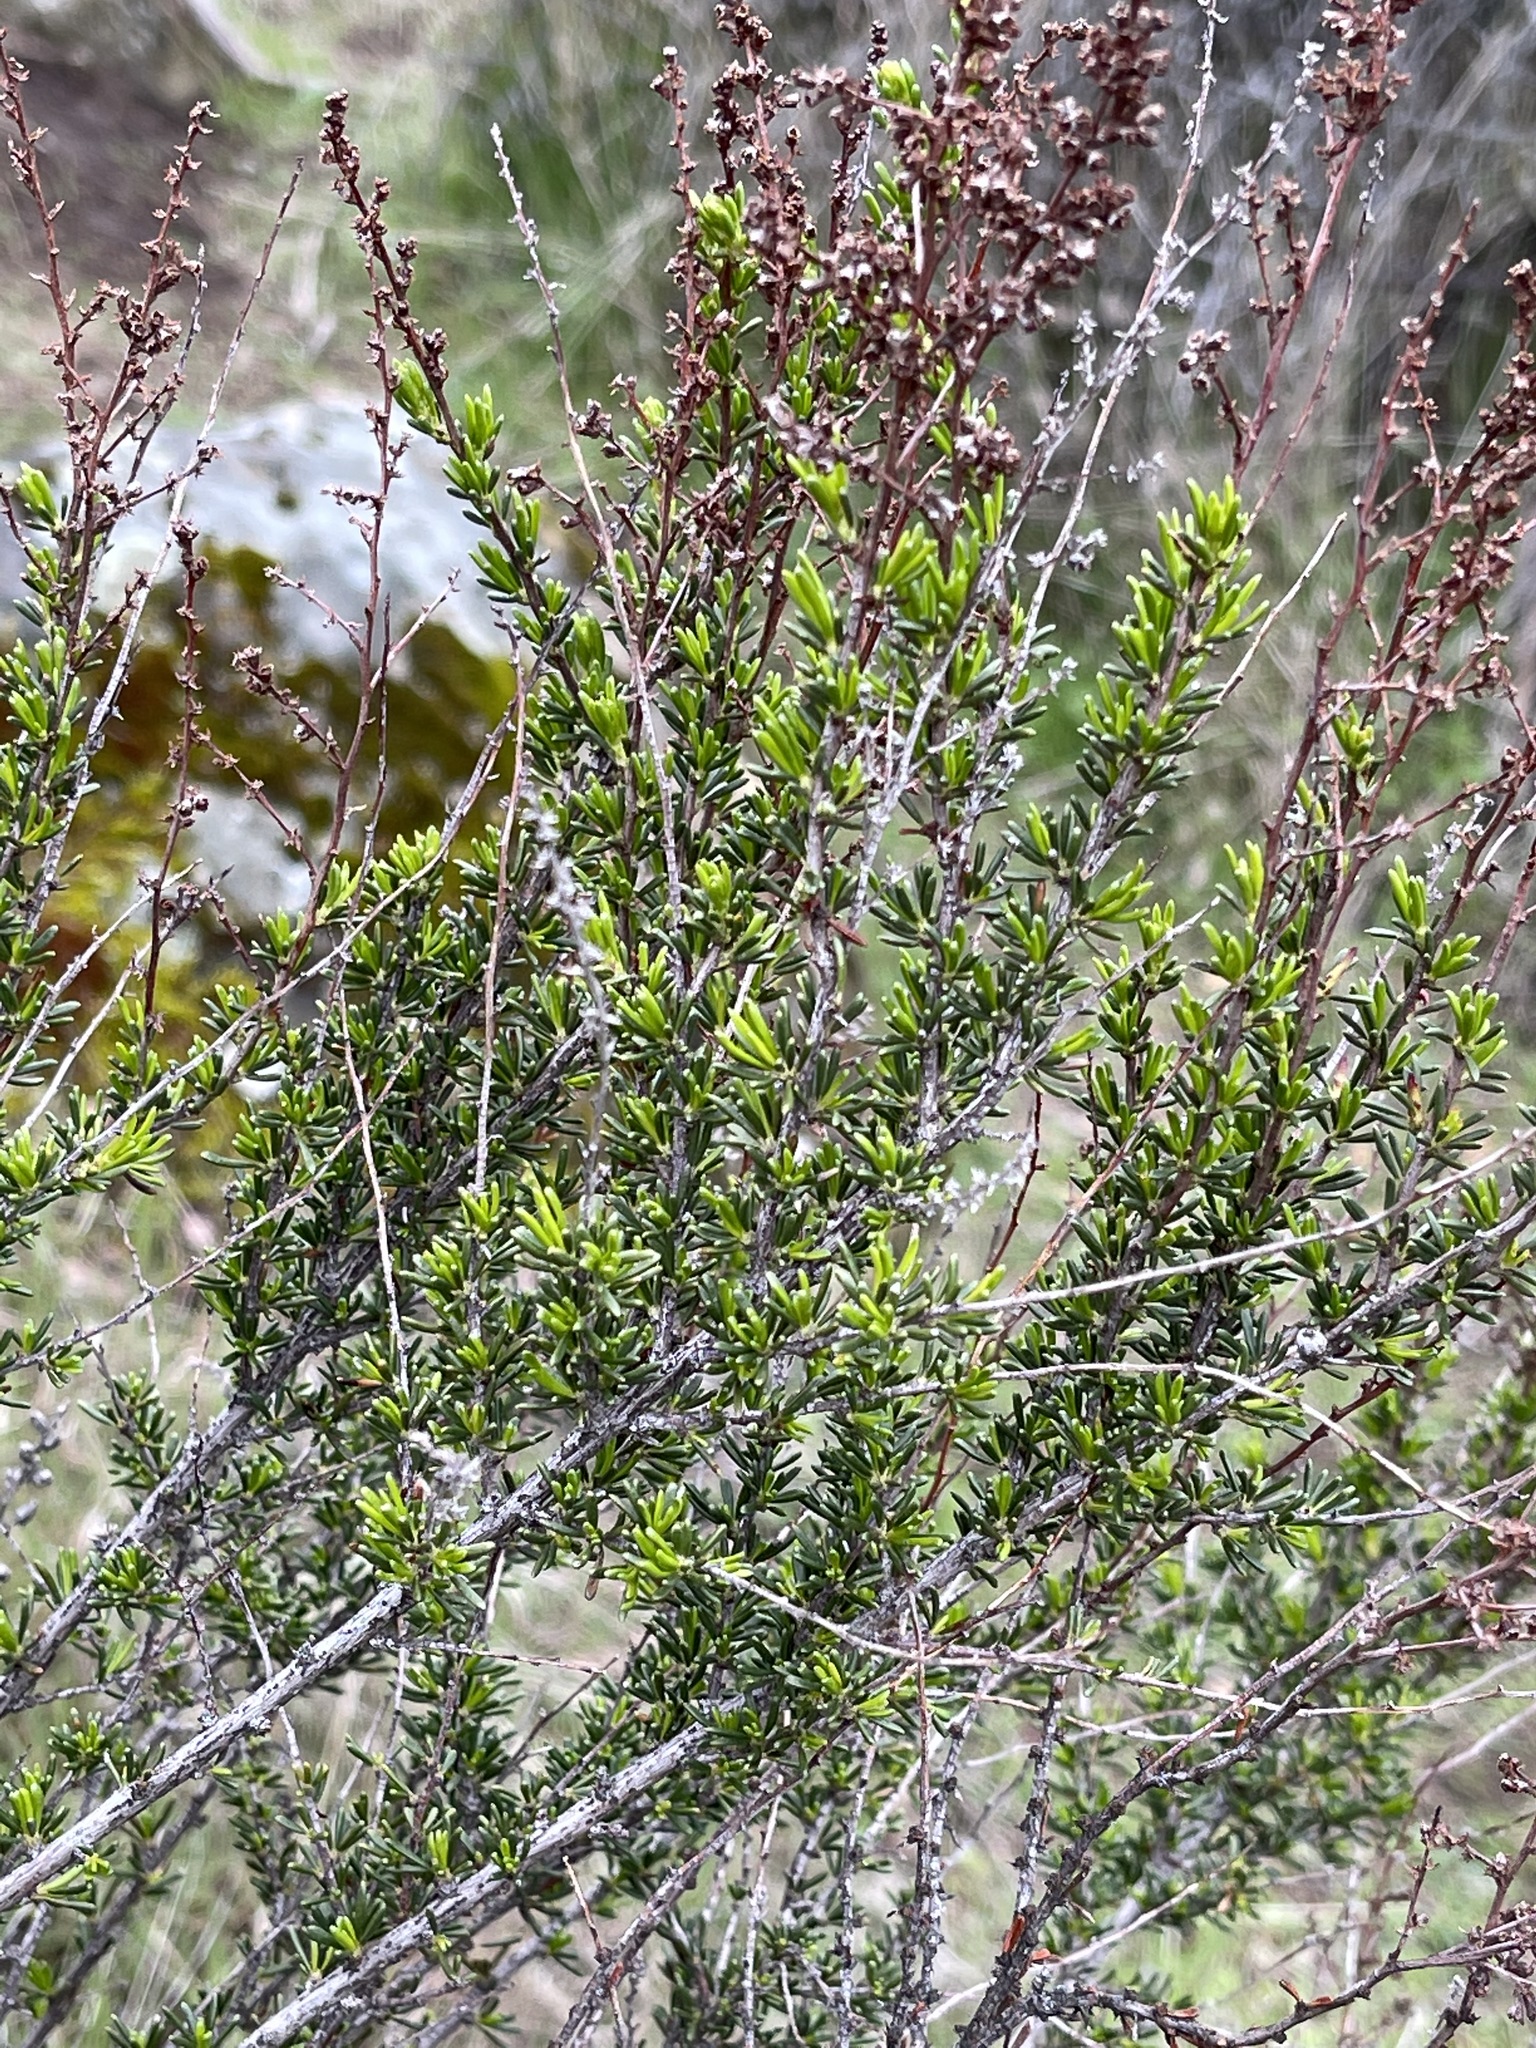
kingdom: Plantae
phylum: Tracheophyta
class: Magnoliopsida
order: Rosales
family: Rosaceae
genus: Adenostoma
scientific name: Adenostoma fasciculatum
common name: Chamise
